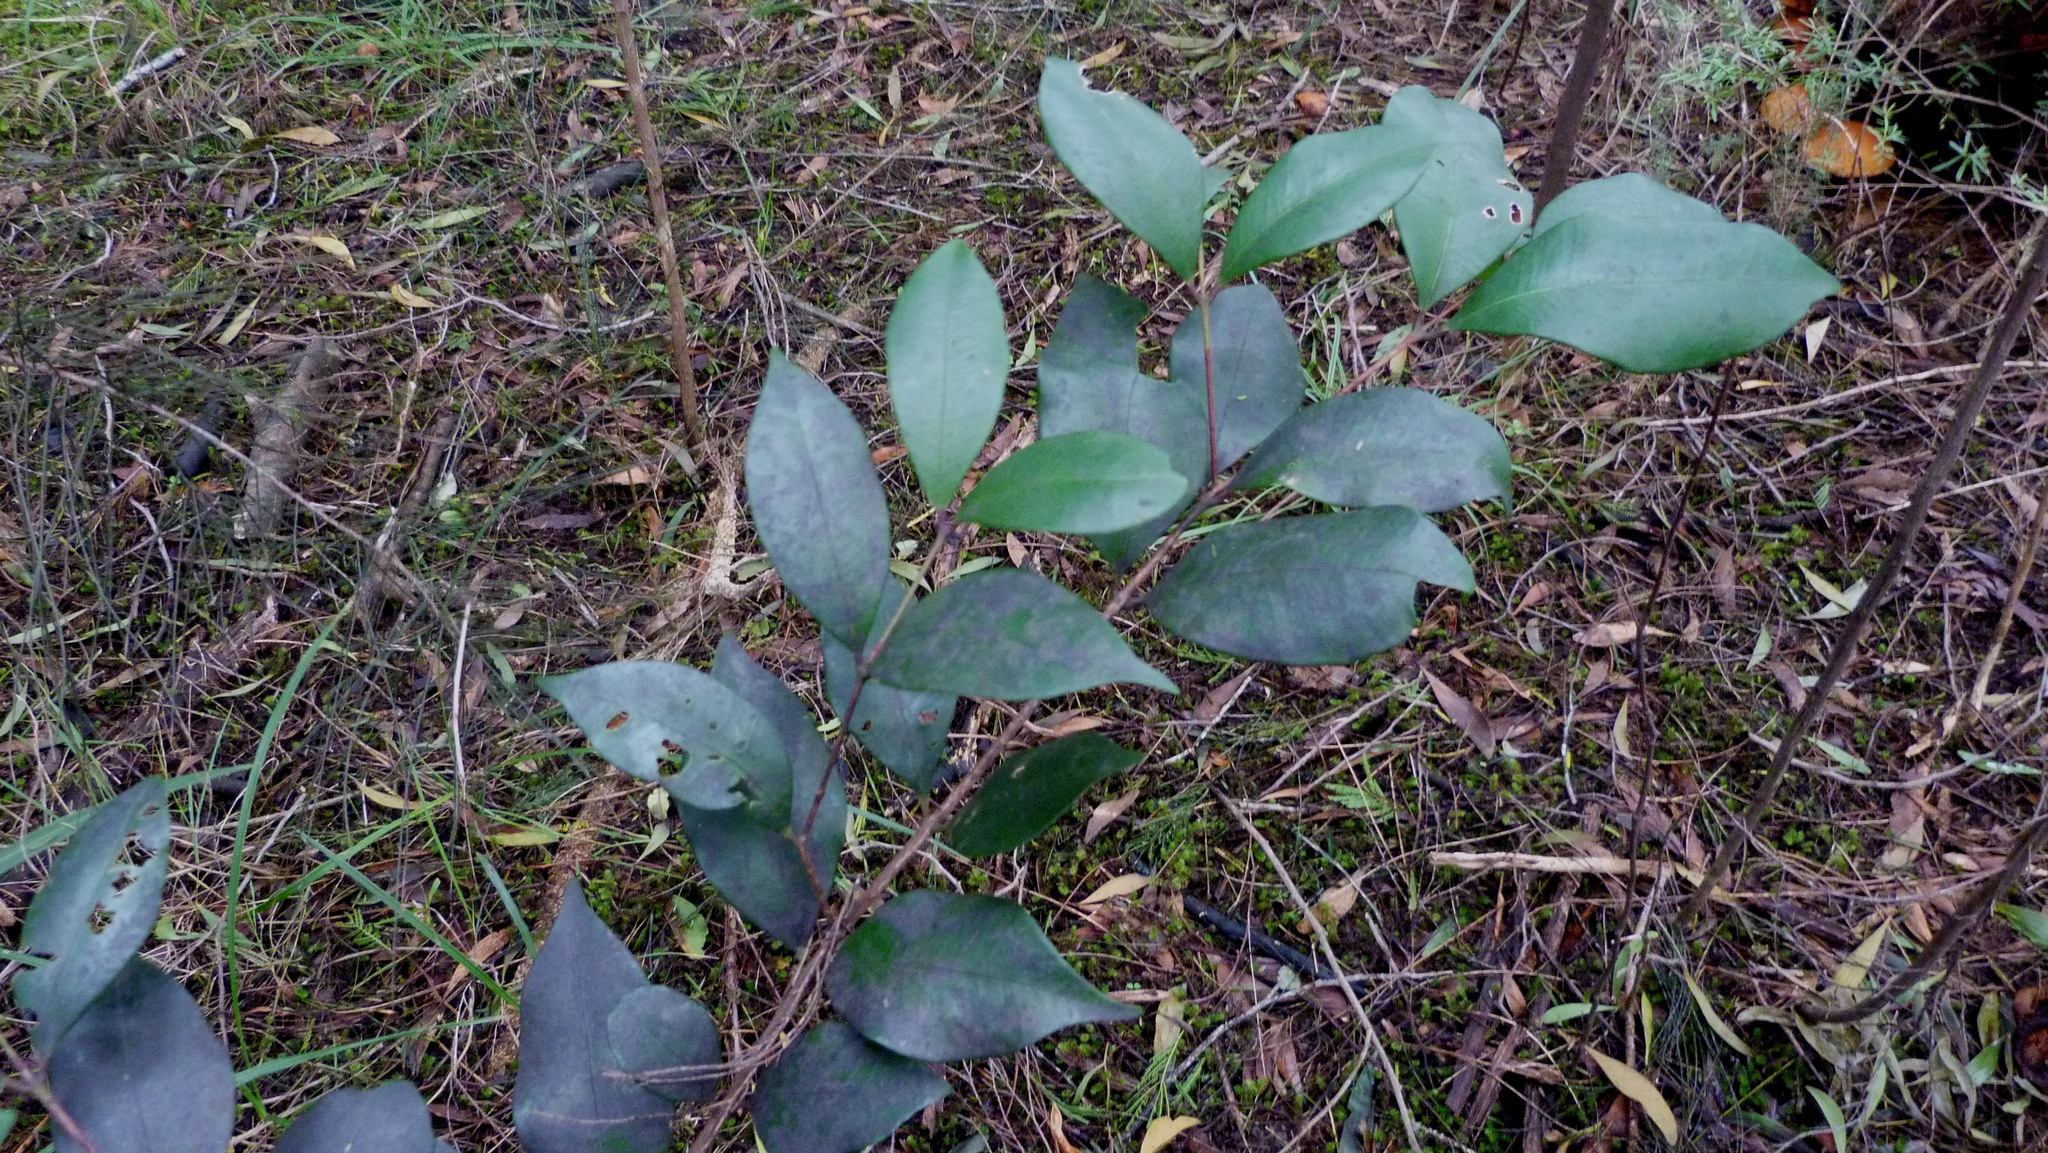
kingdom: Plantae
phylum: Tracheophyta
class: Magnoliopsida
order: Myrtales
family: Myrtaceae
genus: Syzygium
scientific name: Syzygium smithii
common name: Lilly-pilly
